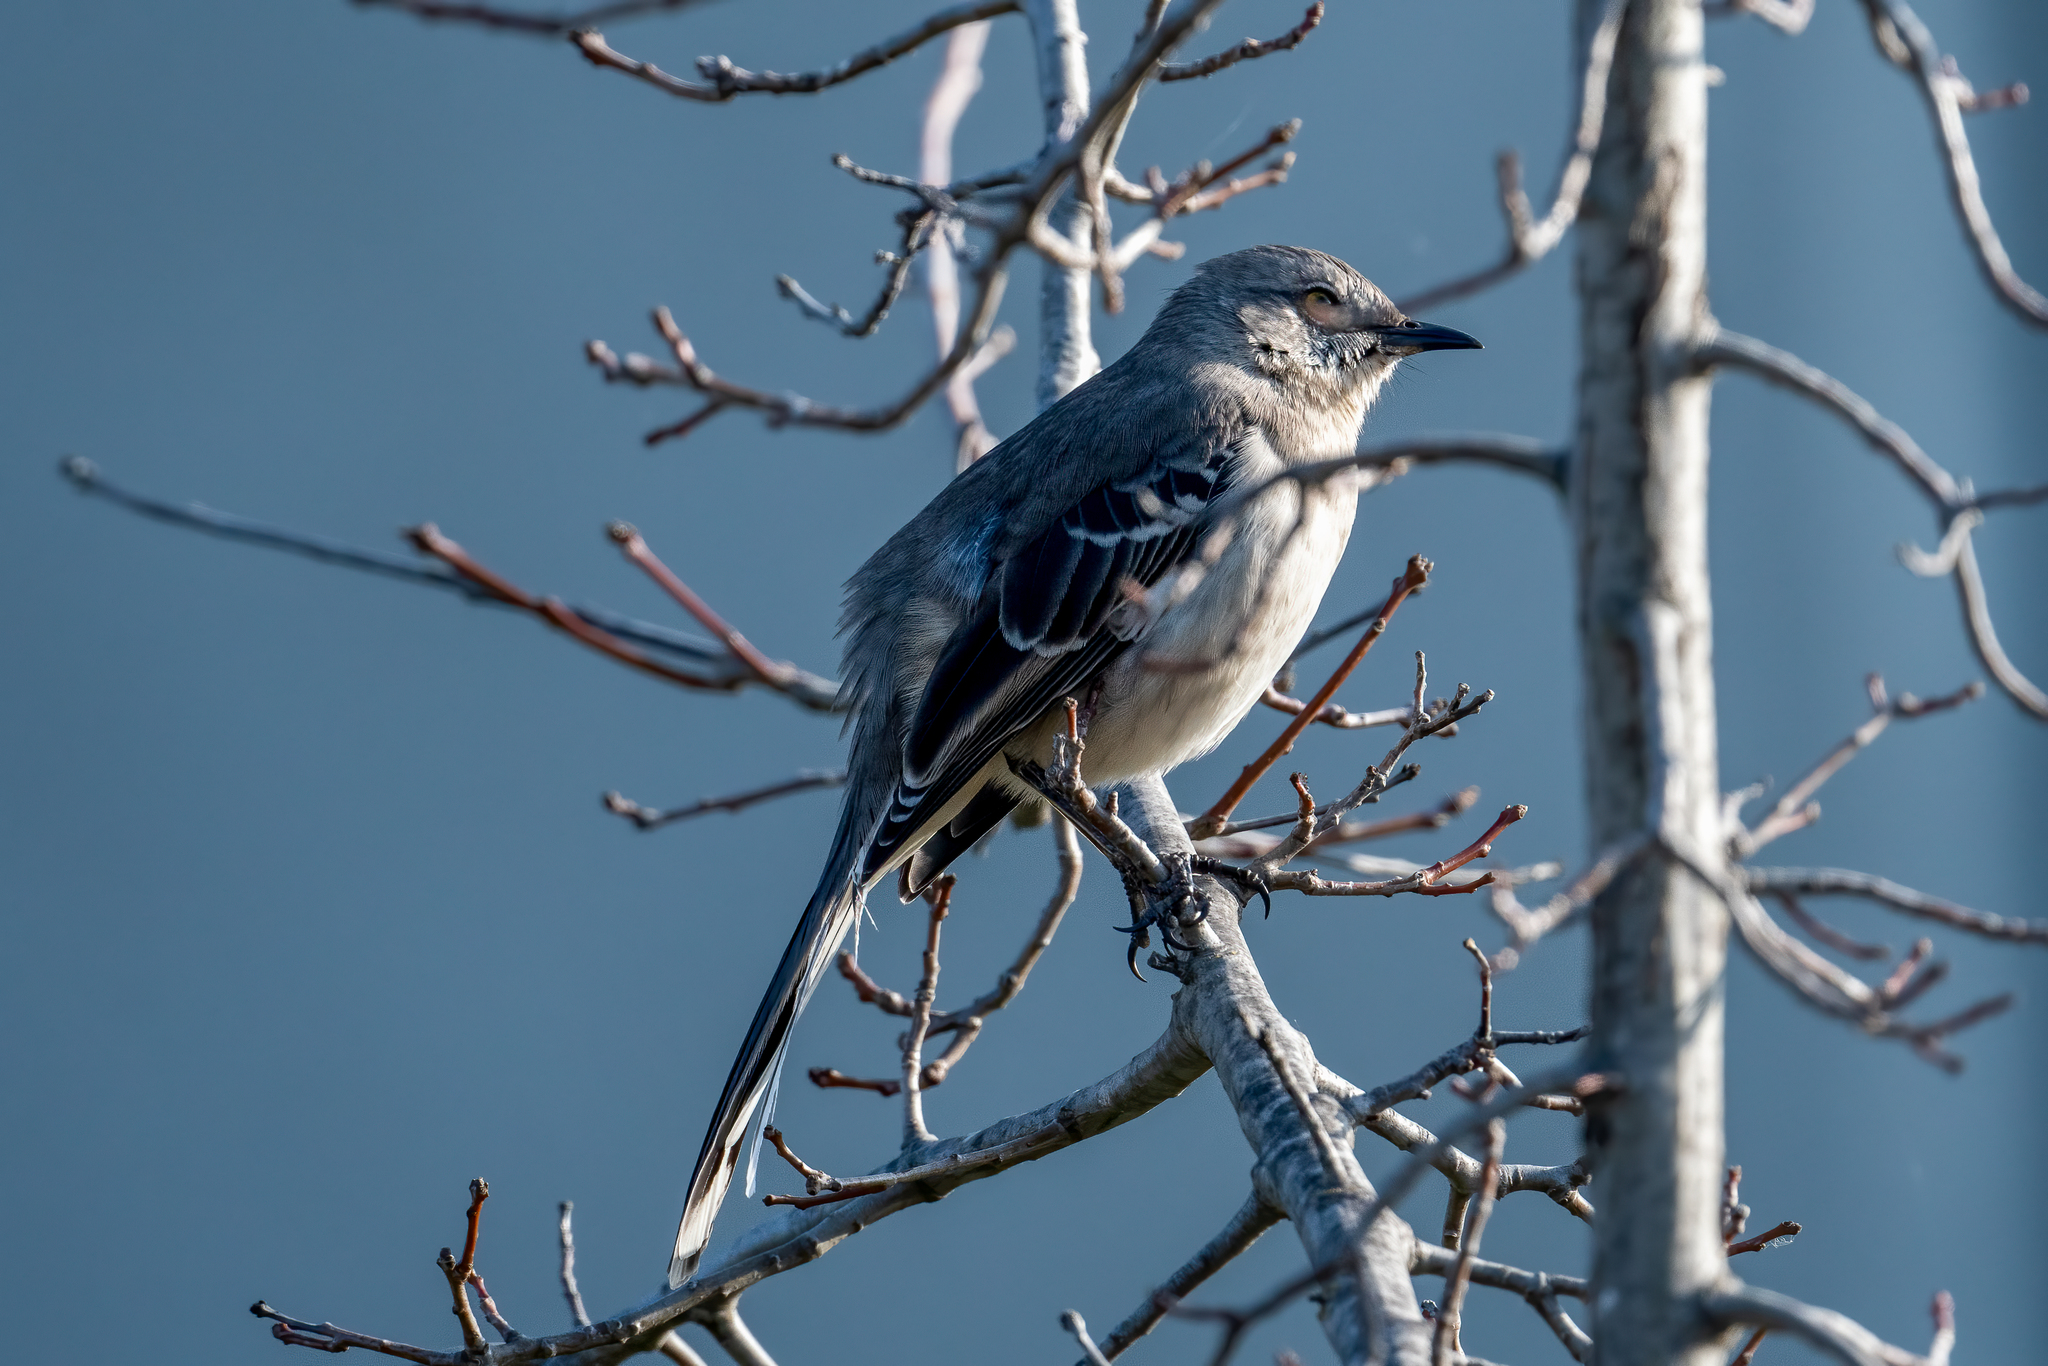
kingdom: Animalia
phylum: Chordata
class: Aves
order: Passeriformes
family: Mimidae
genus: Mimus
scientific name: Mimus polyglottos
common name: Northern mockingbird
